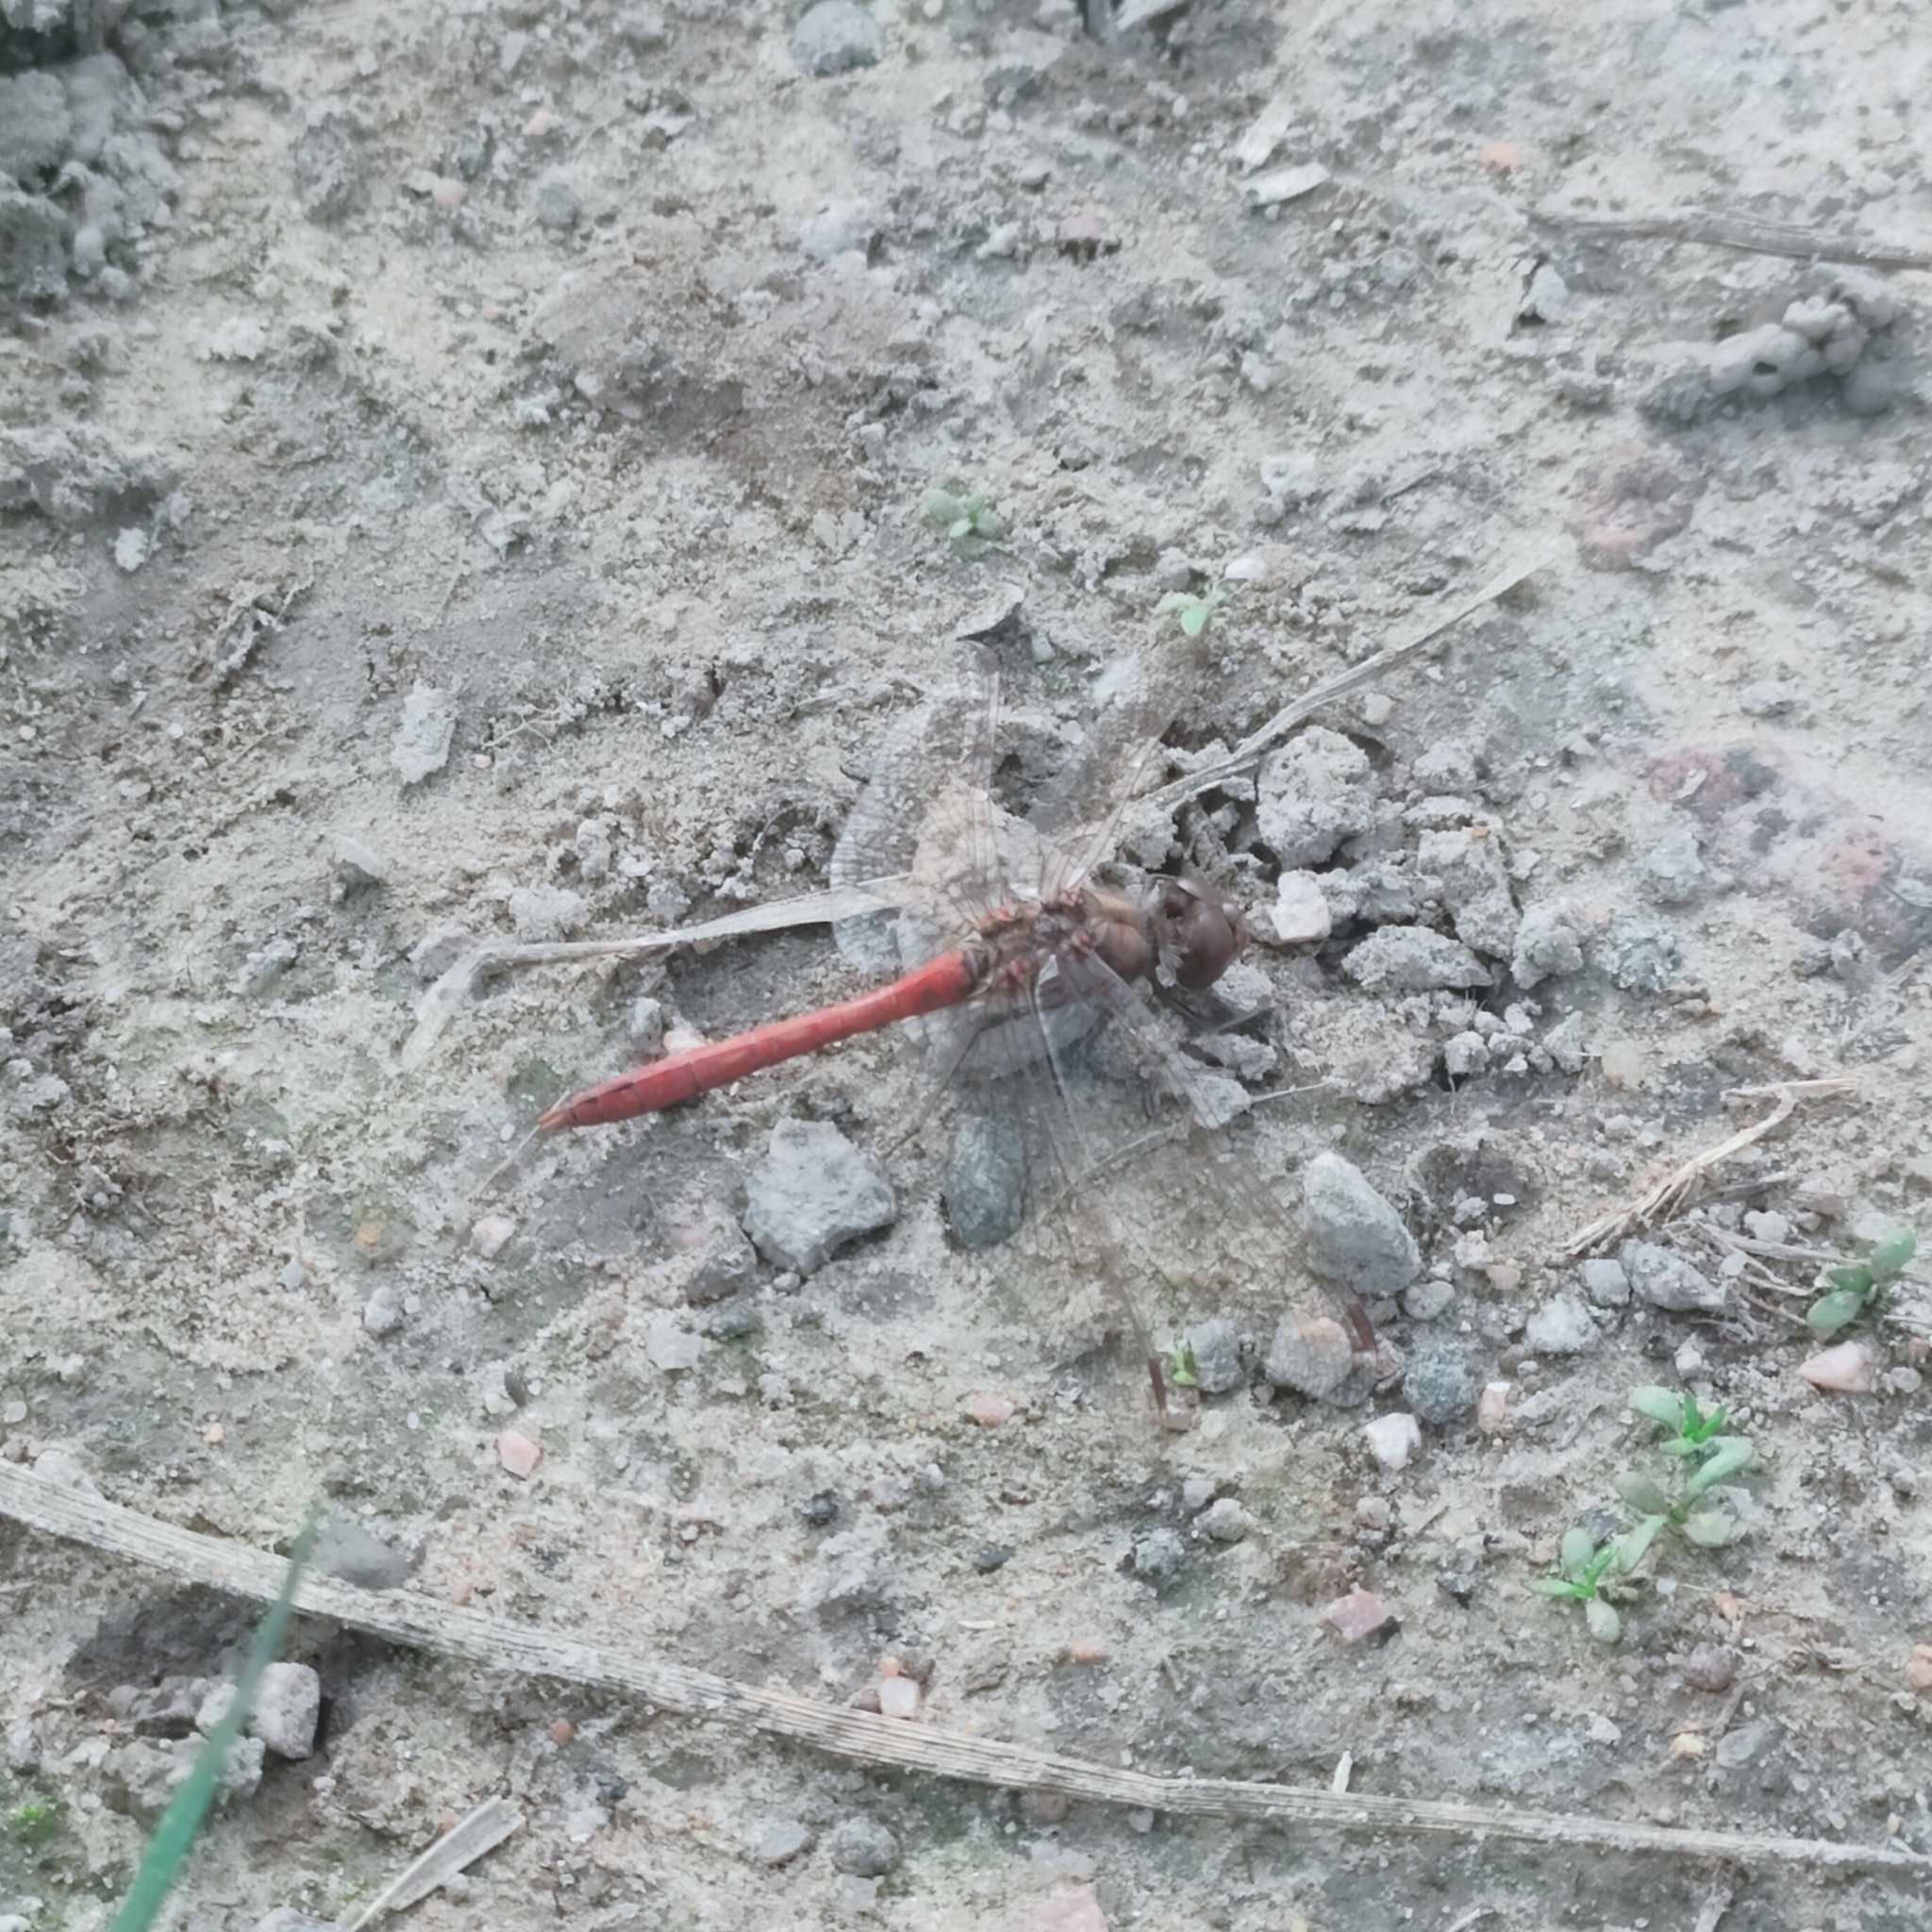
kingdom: Animalia
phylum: Arthropoda
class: Insecta
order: Odonata
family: Libellulidae
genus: Sympetrum
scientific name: Sympetrum vulgatum
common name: Vagrant darter
